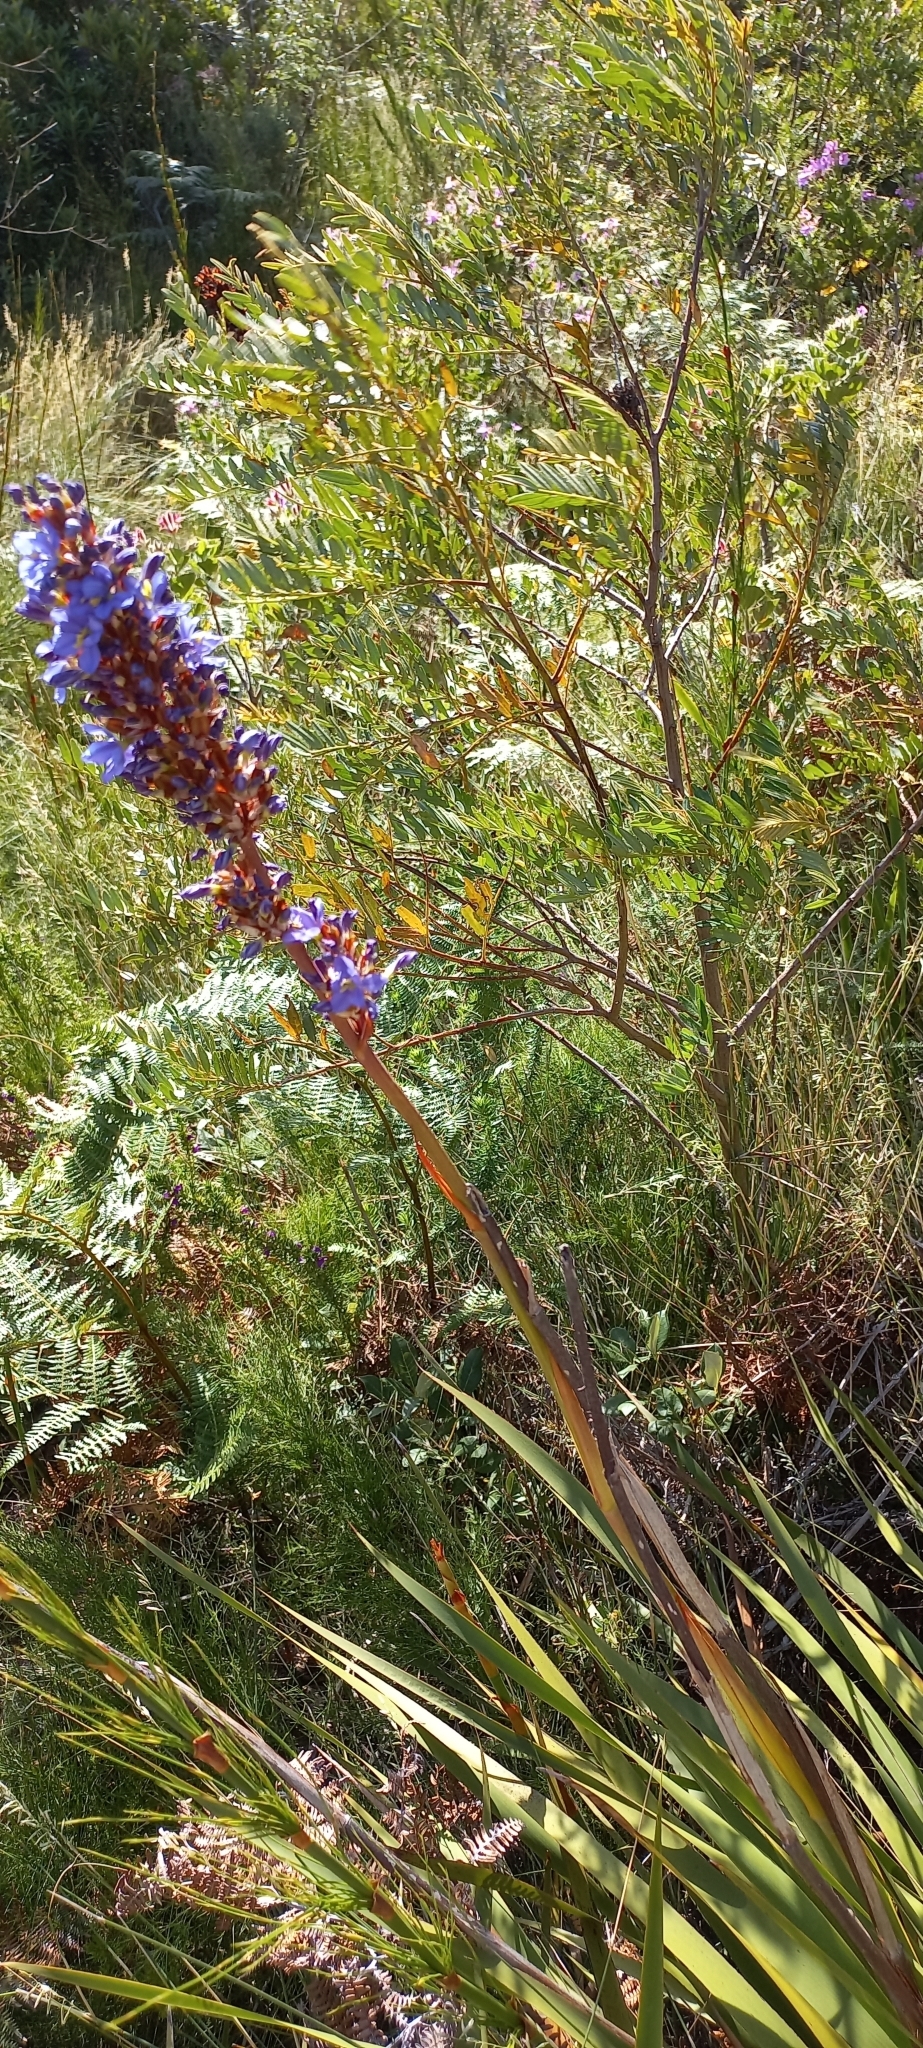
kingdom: Plantae
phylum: Tracheophyta
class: Liliopsida
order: Asparagales
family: Iridaceae
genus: Aristea
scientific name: Aristea capitata
